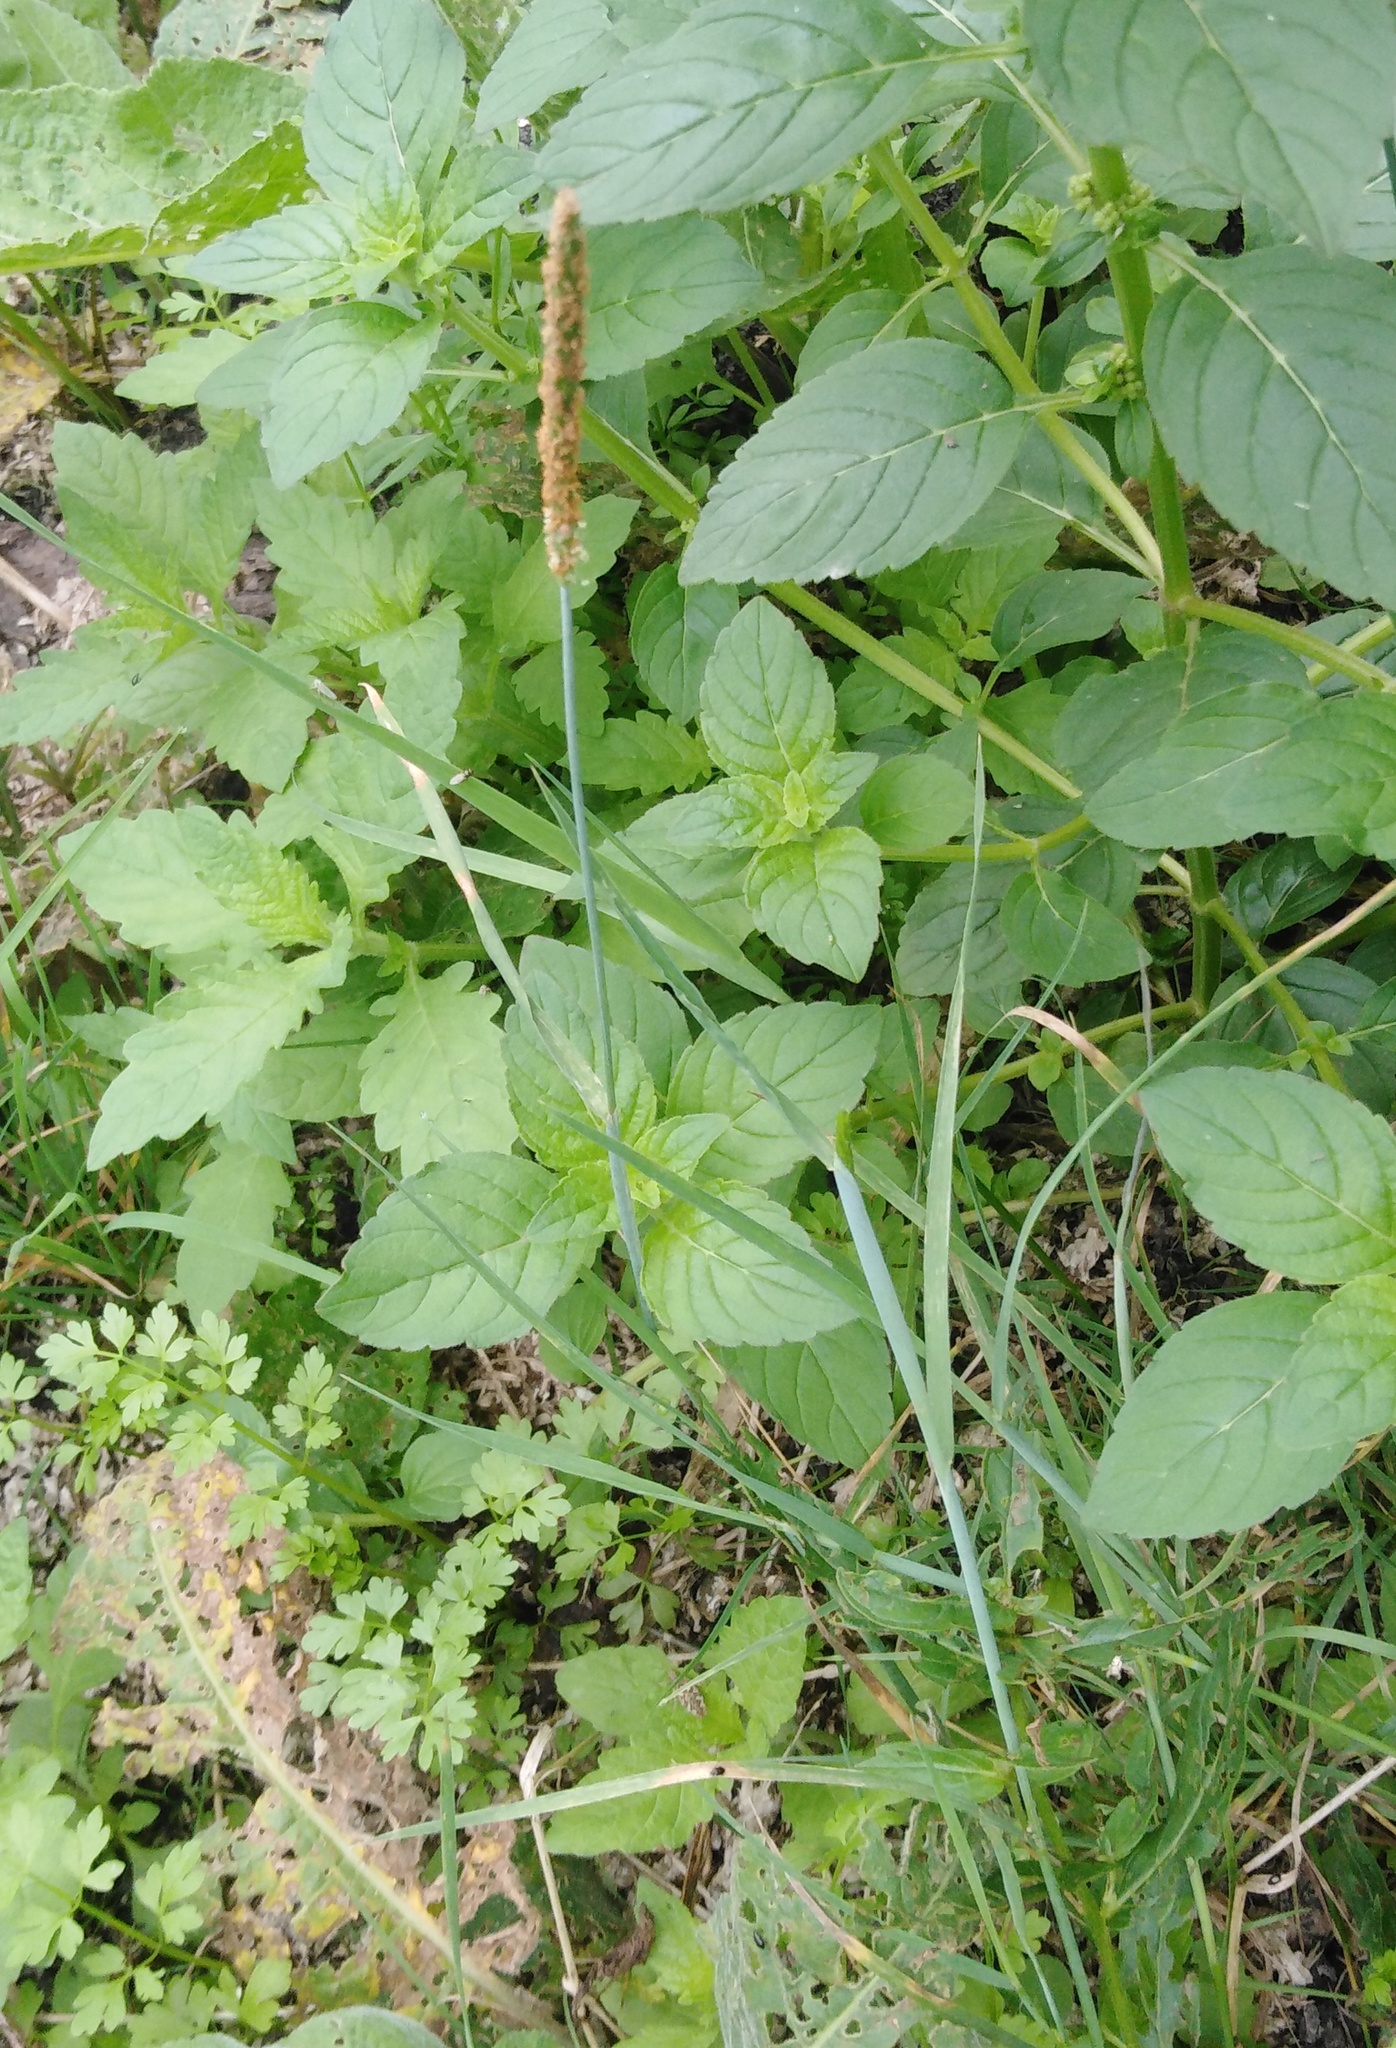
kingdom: Plantae
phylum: Tracheophyta
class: Liliopsida
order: Poales
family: Poaceae
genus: Alopecurus
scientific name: Alopecurus aequalis
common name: Orange foxtail
